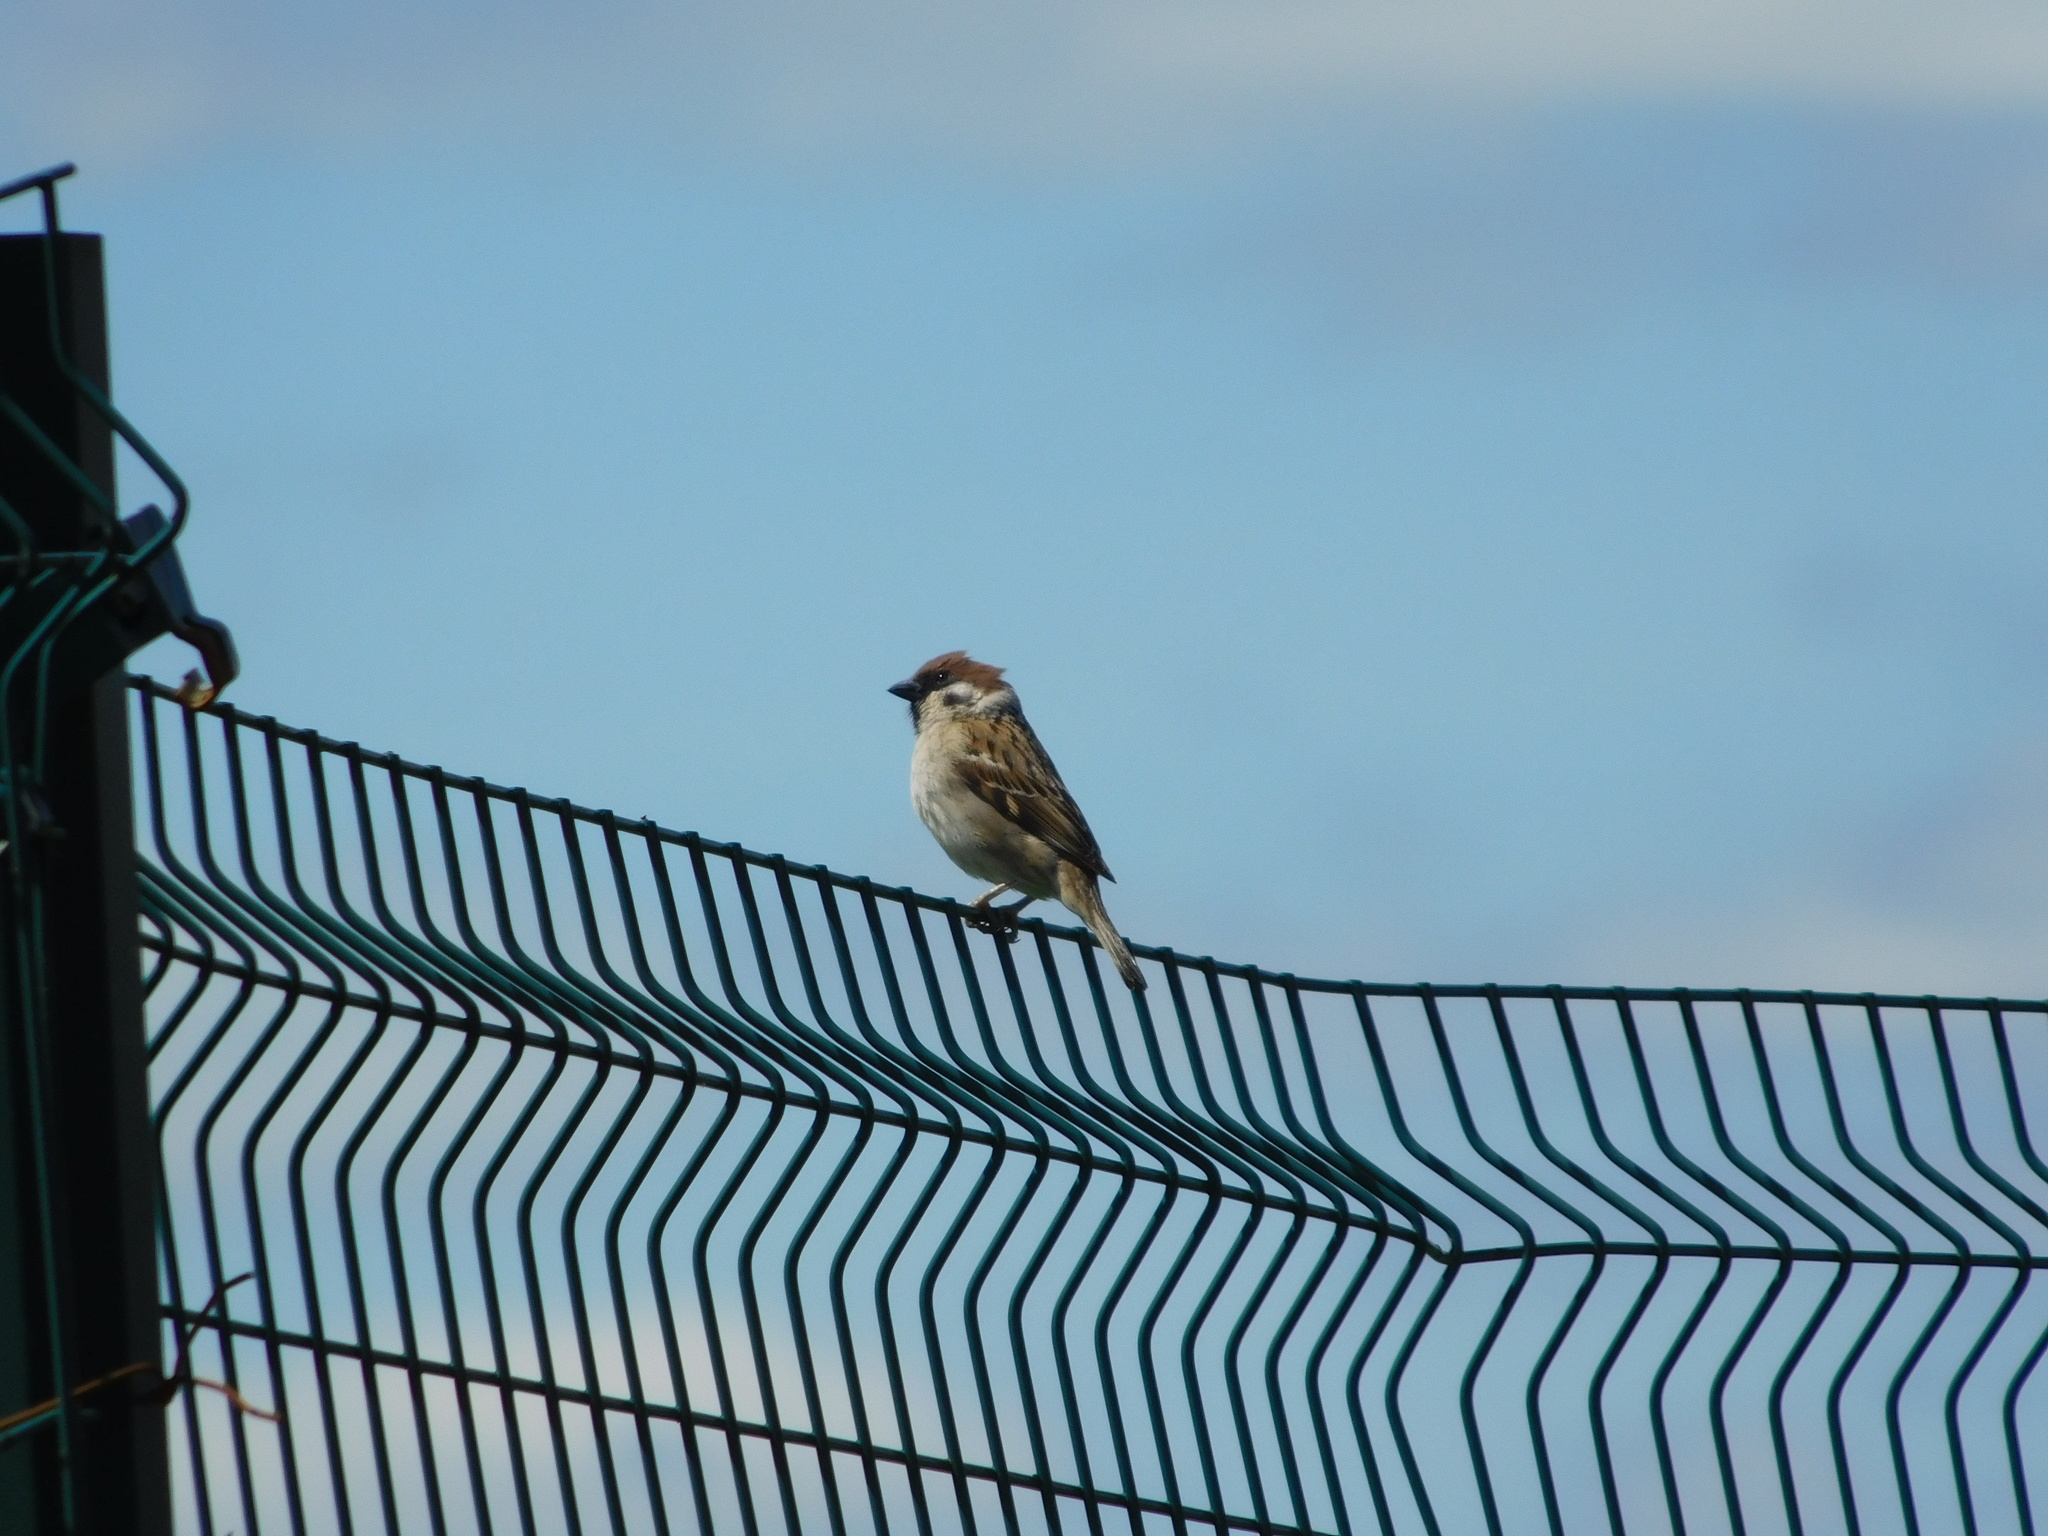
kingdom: Animalia
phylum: Chordata
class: Aves
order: Passeriformes
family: Passeridae
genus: Passer
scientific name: Passer montanus
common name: Eurasian tree sparrow
